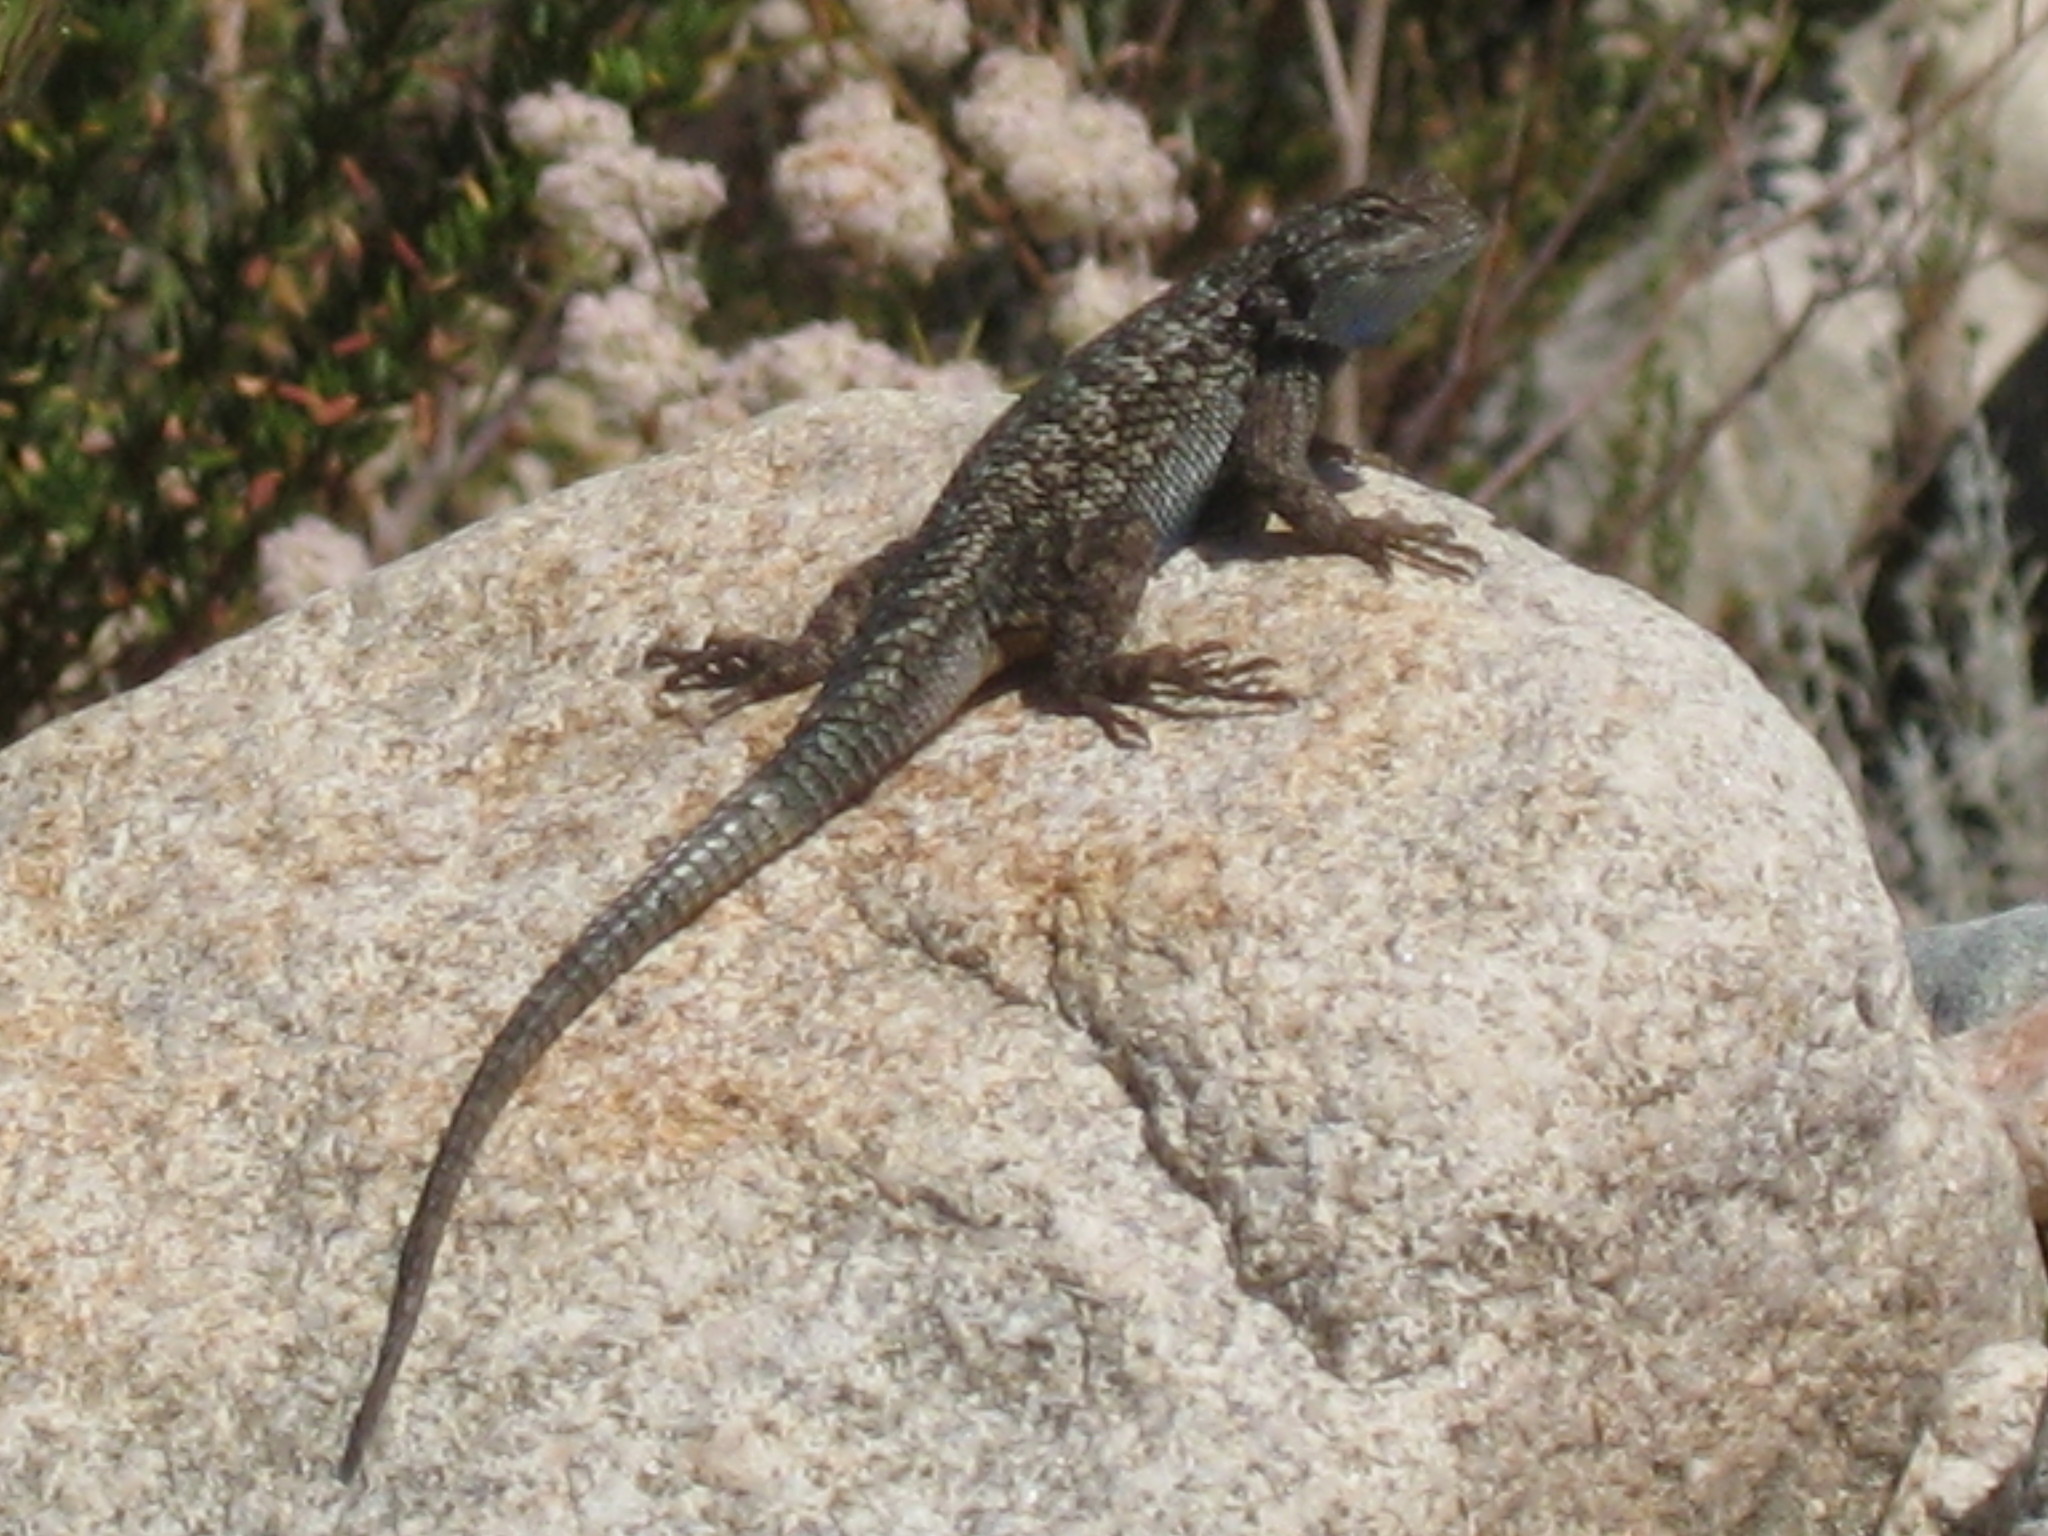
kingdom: Animalia
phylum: Chordata
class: Squamata
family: Phrynosomatidae
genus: Sceloporus
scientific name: Sceloporus occidentalis
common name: Western fence lizard
